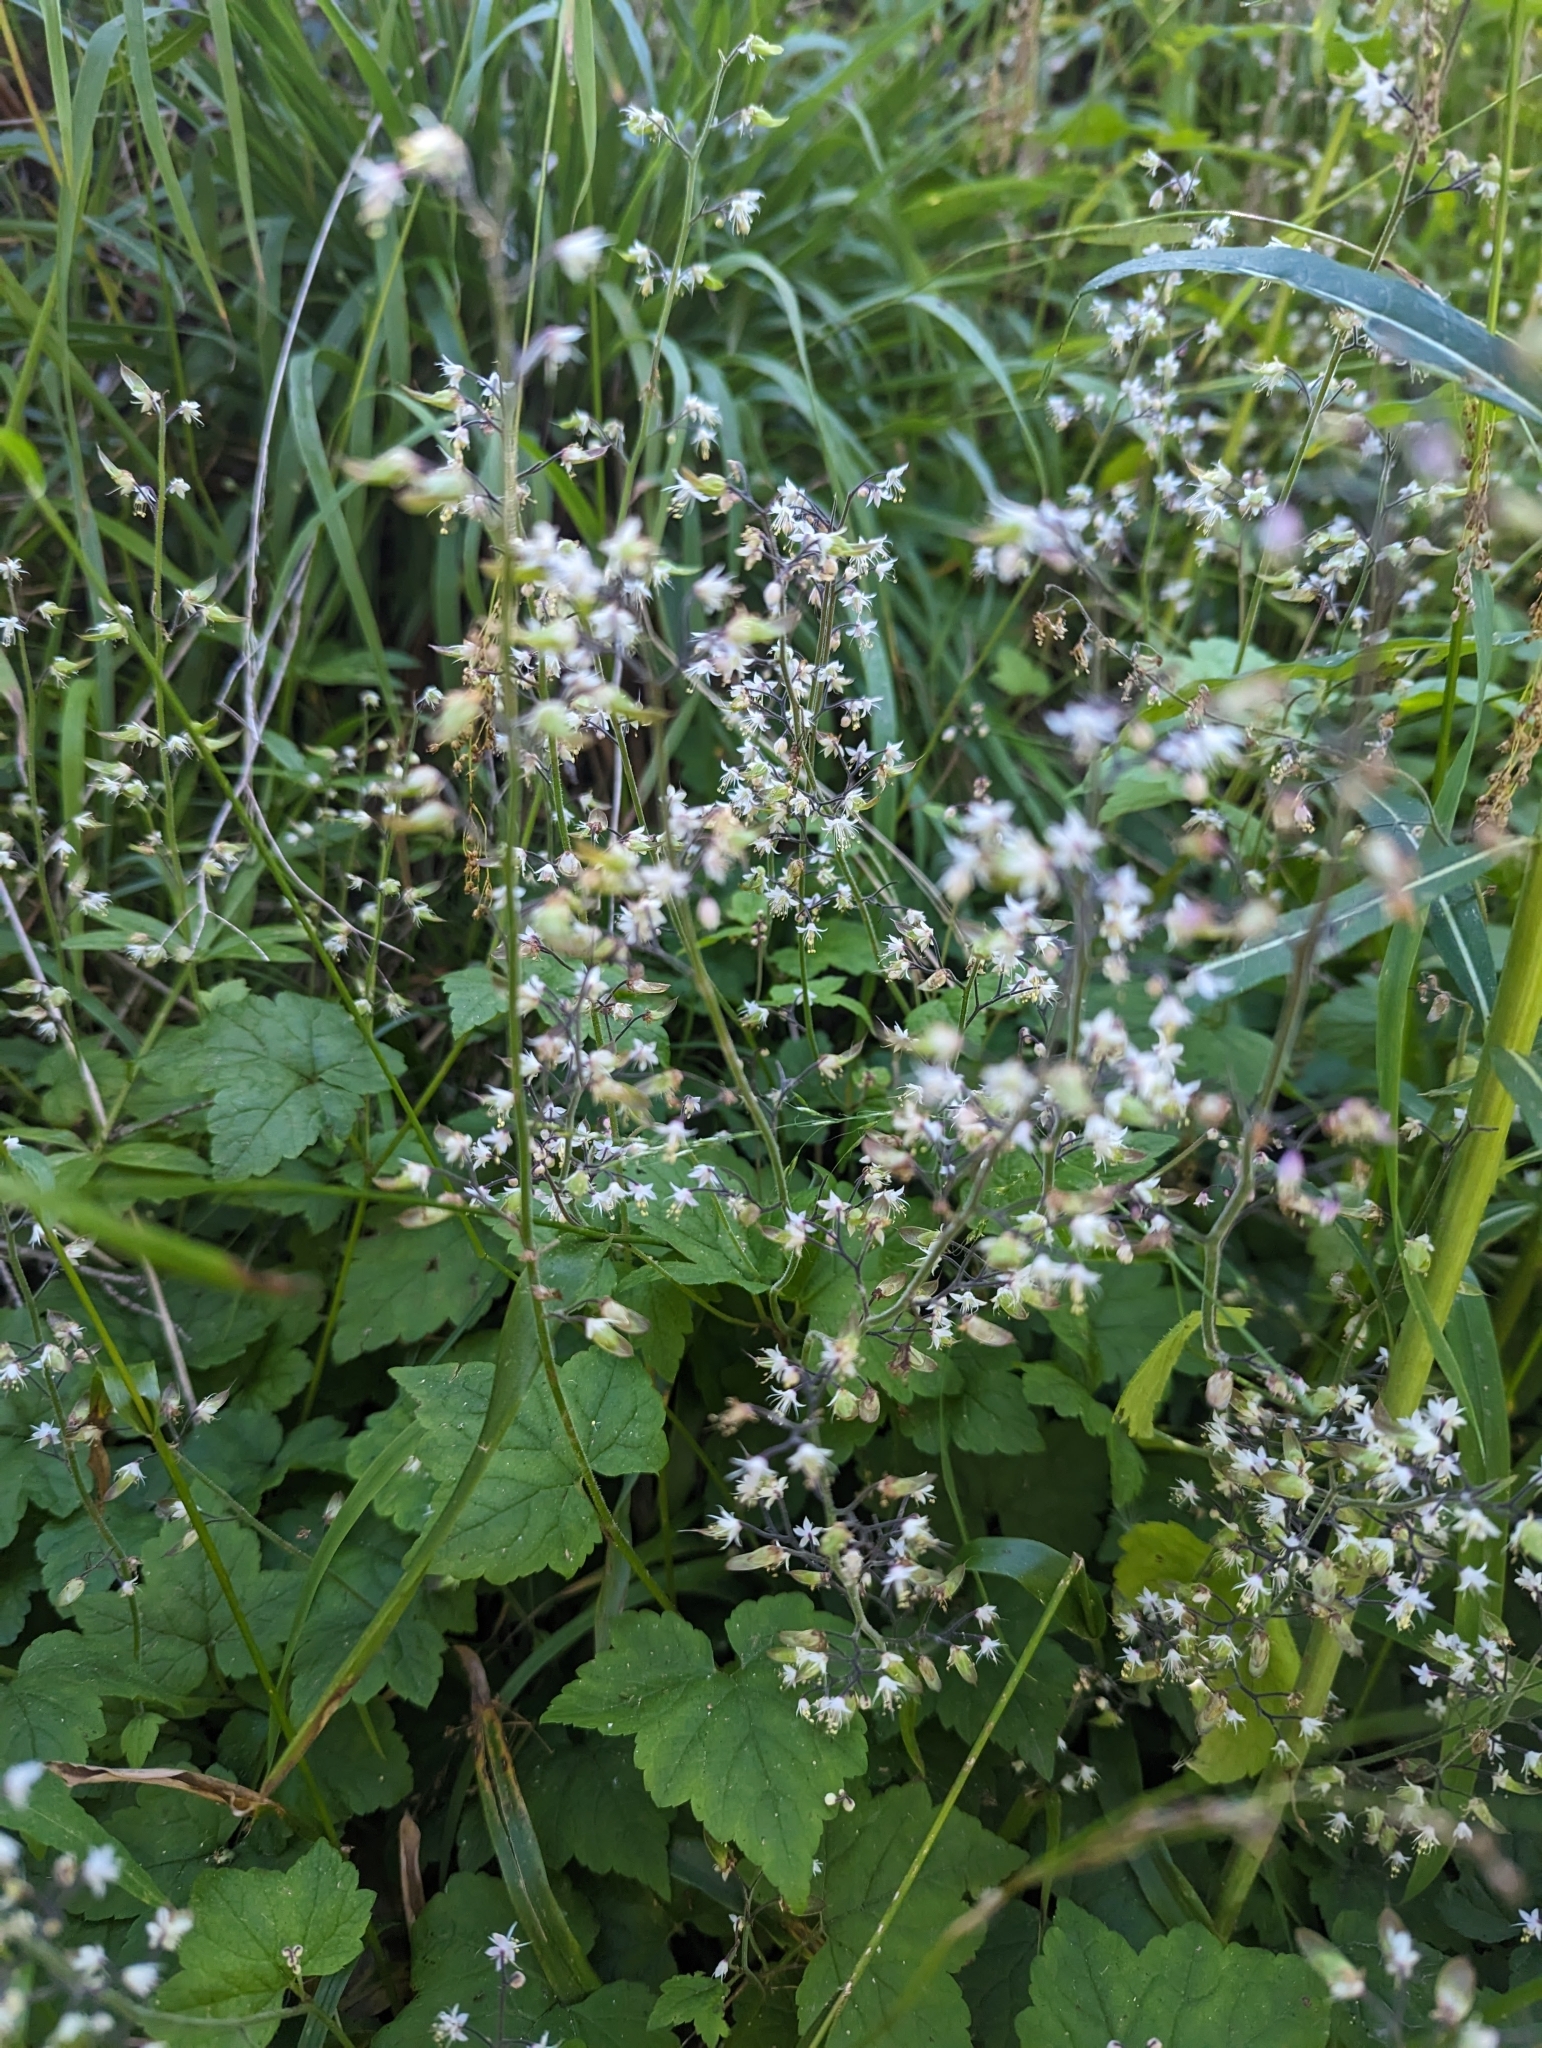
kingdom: Plantae
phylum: Tracheophyta
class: Magnoliopsida
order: Saxifragales
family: Saxifragaceae
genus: Tiarella
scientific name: Tiarella trifoliata
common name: Sugar-scoop
